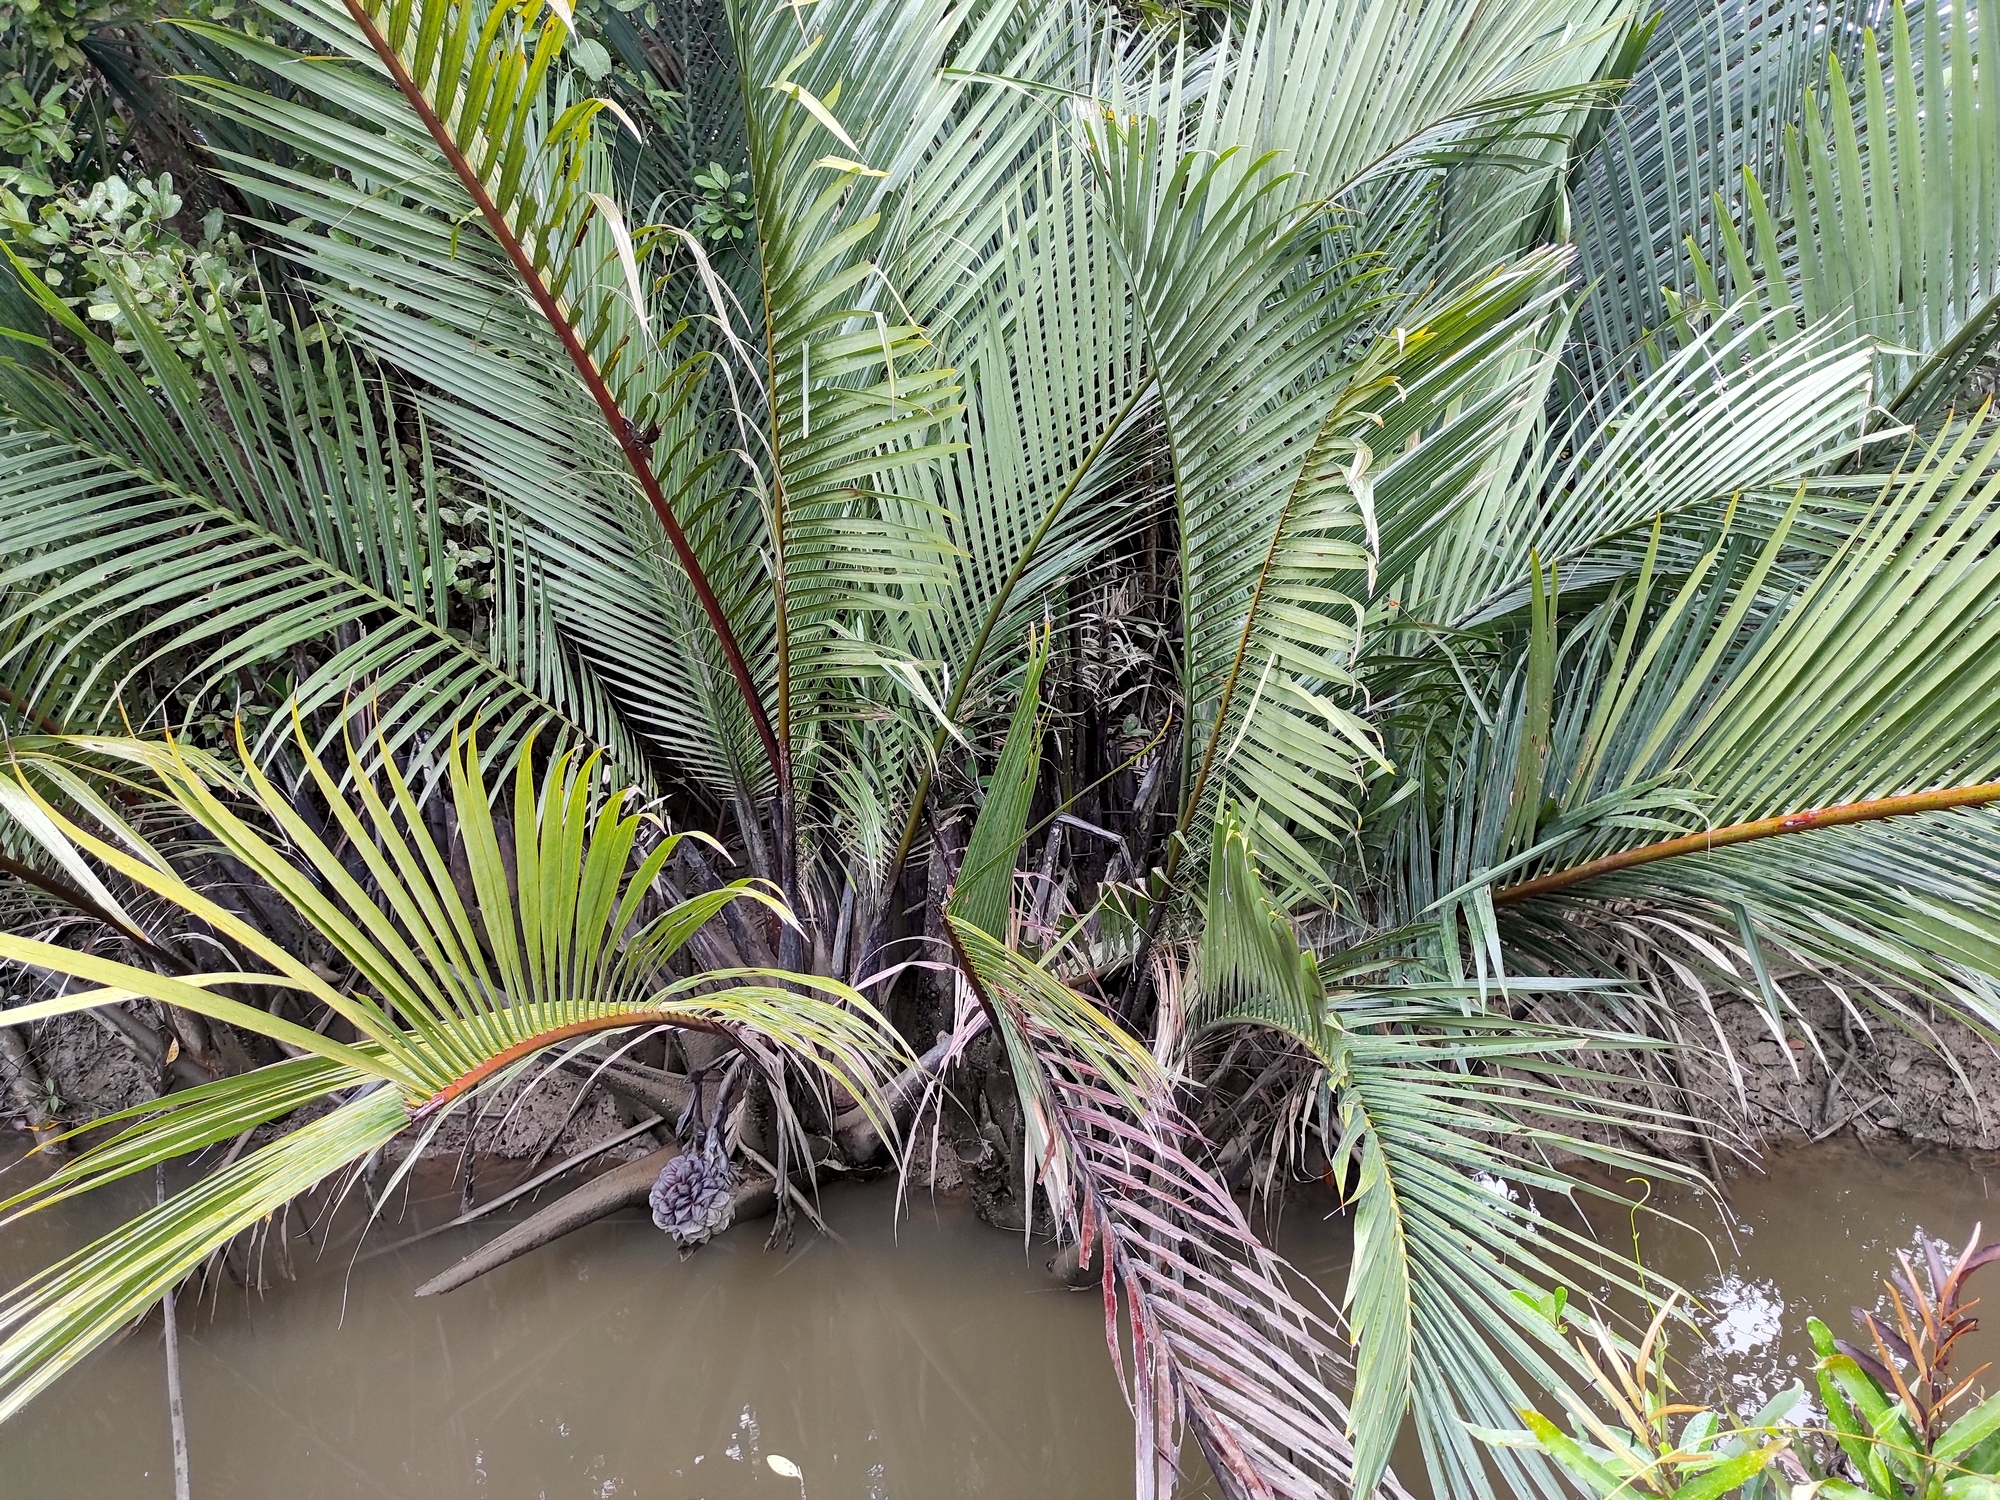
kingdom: Plantae
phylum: Tracheophyta
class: Liliopsida
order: Arecales
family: Arecaceae
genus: Nypa
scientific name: Nypa fruticans
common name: Mangrove palm
